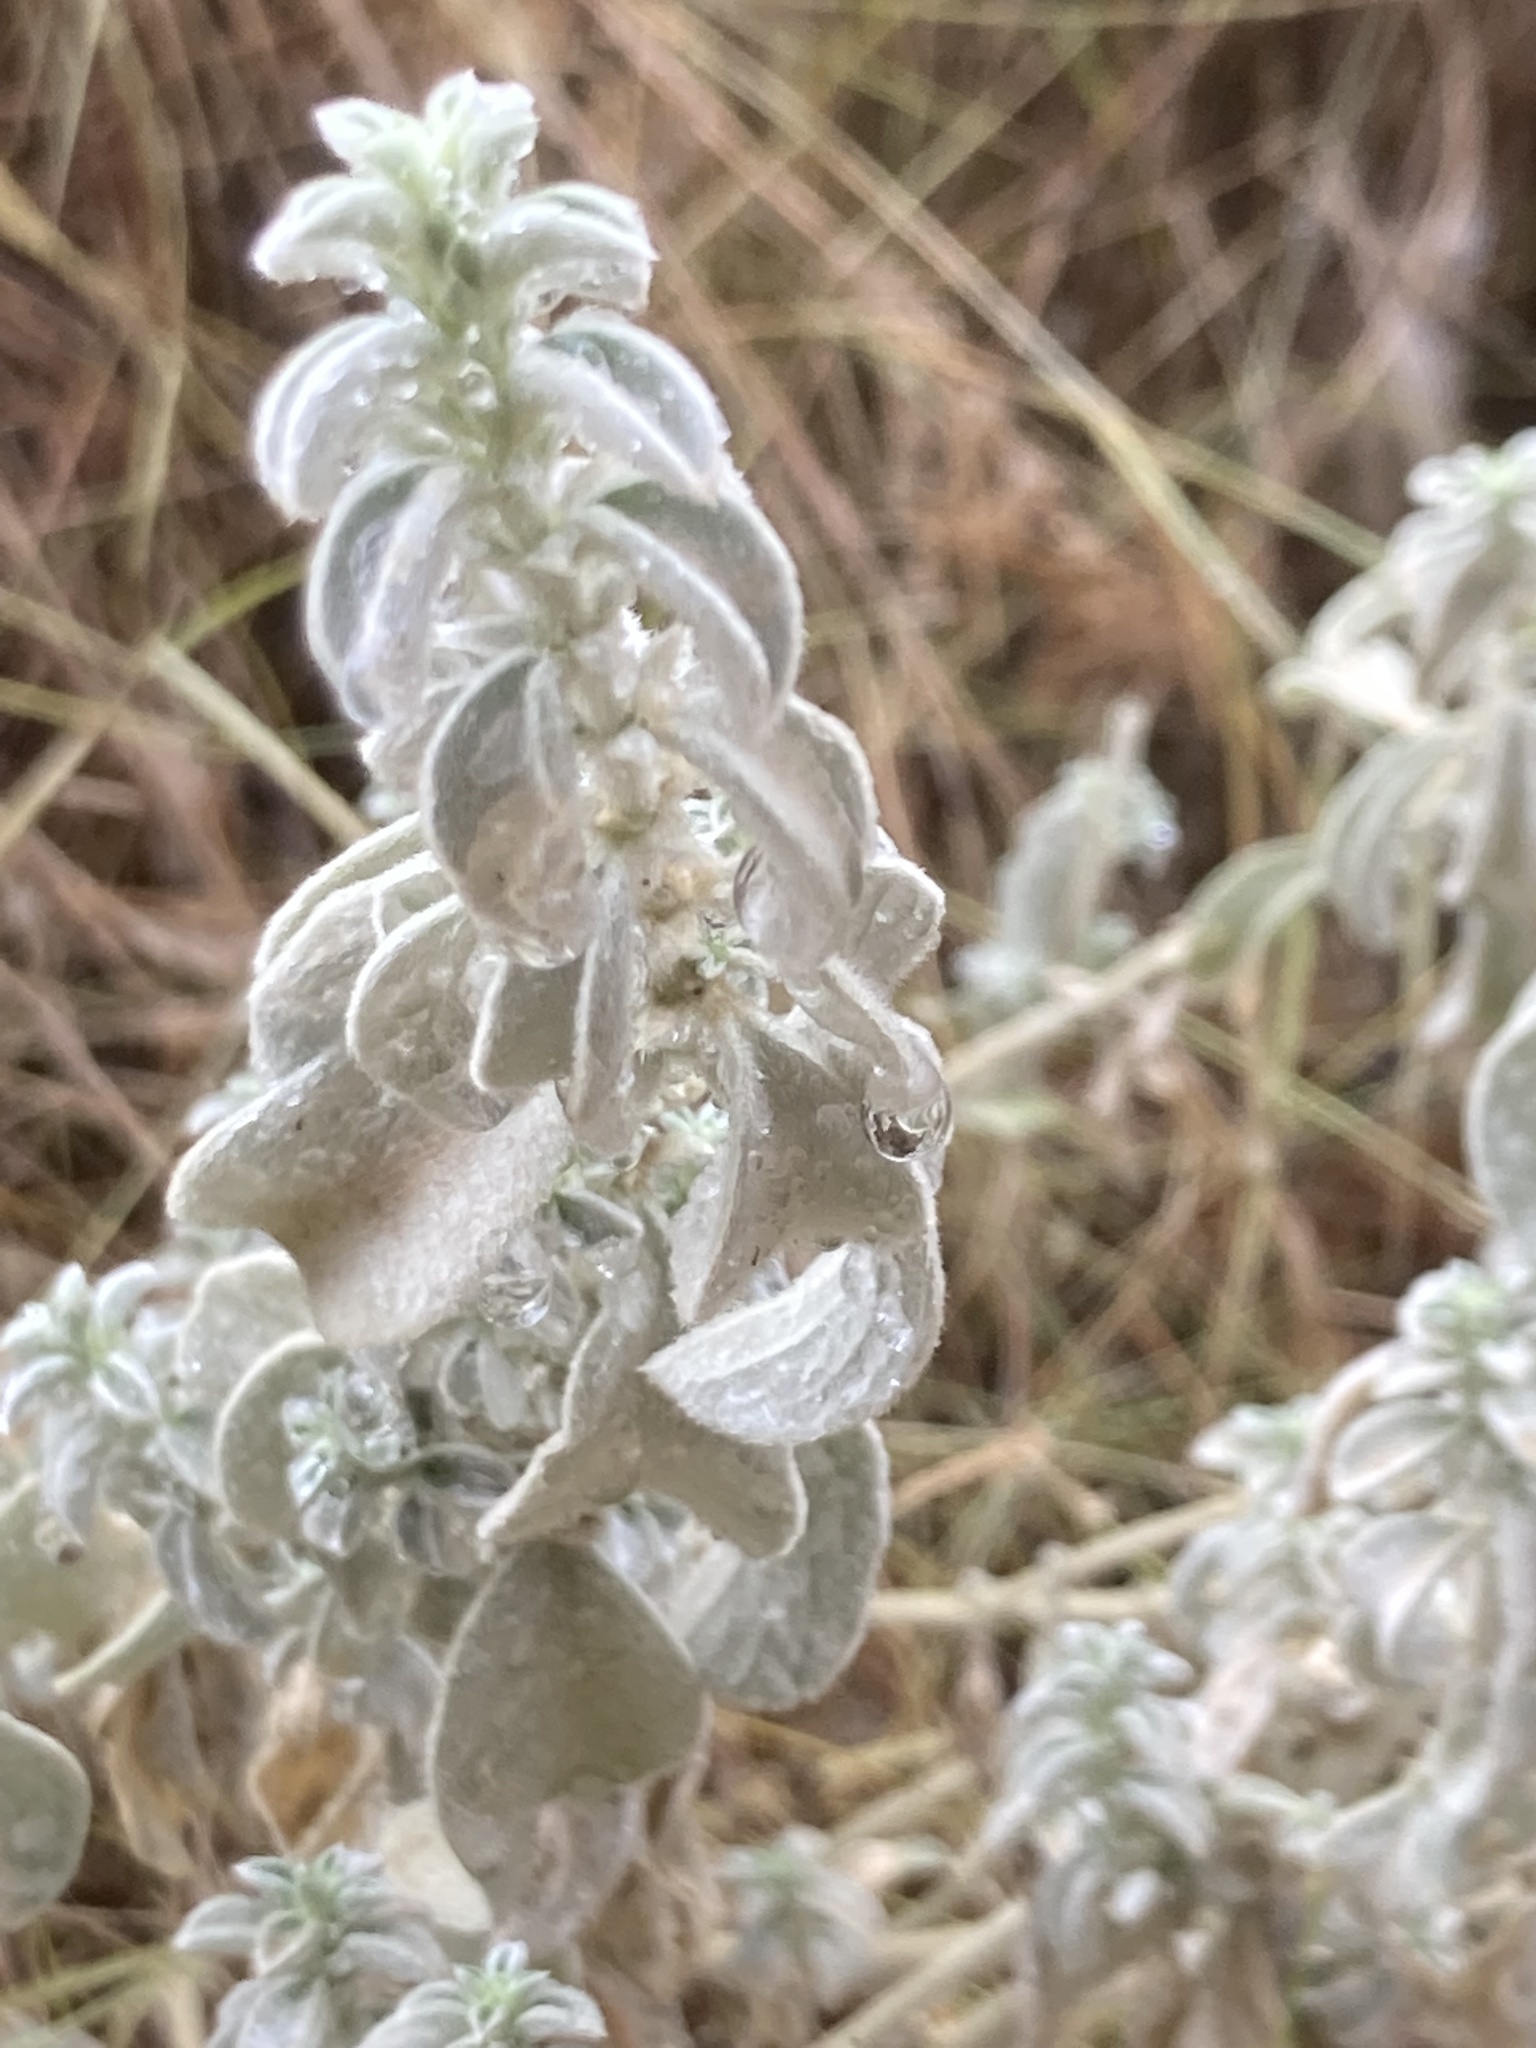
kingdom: Plantae
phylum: Tracheophyta
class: Magnoliopsida
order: Malpighiales
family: Euphorbiaceae
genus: Mercurialis
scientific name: Mercurialis tomentosa
